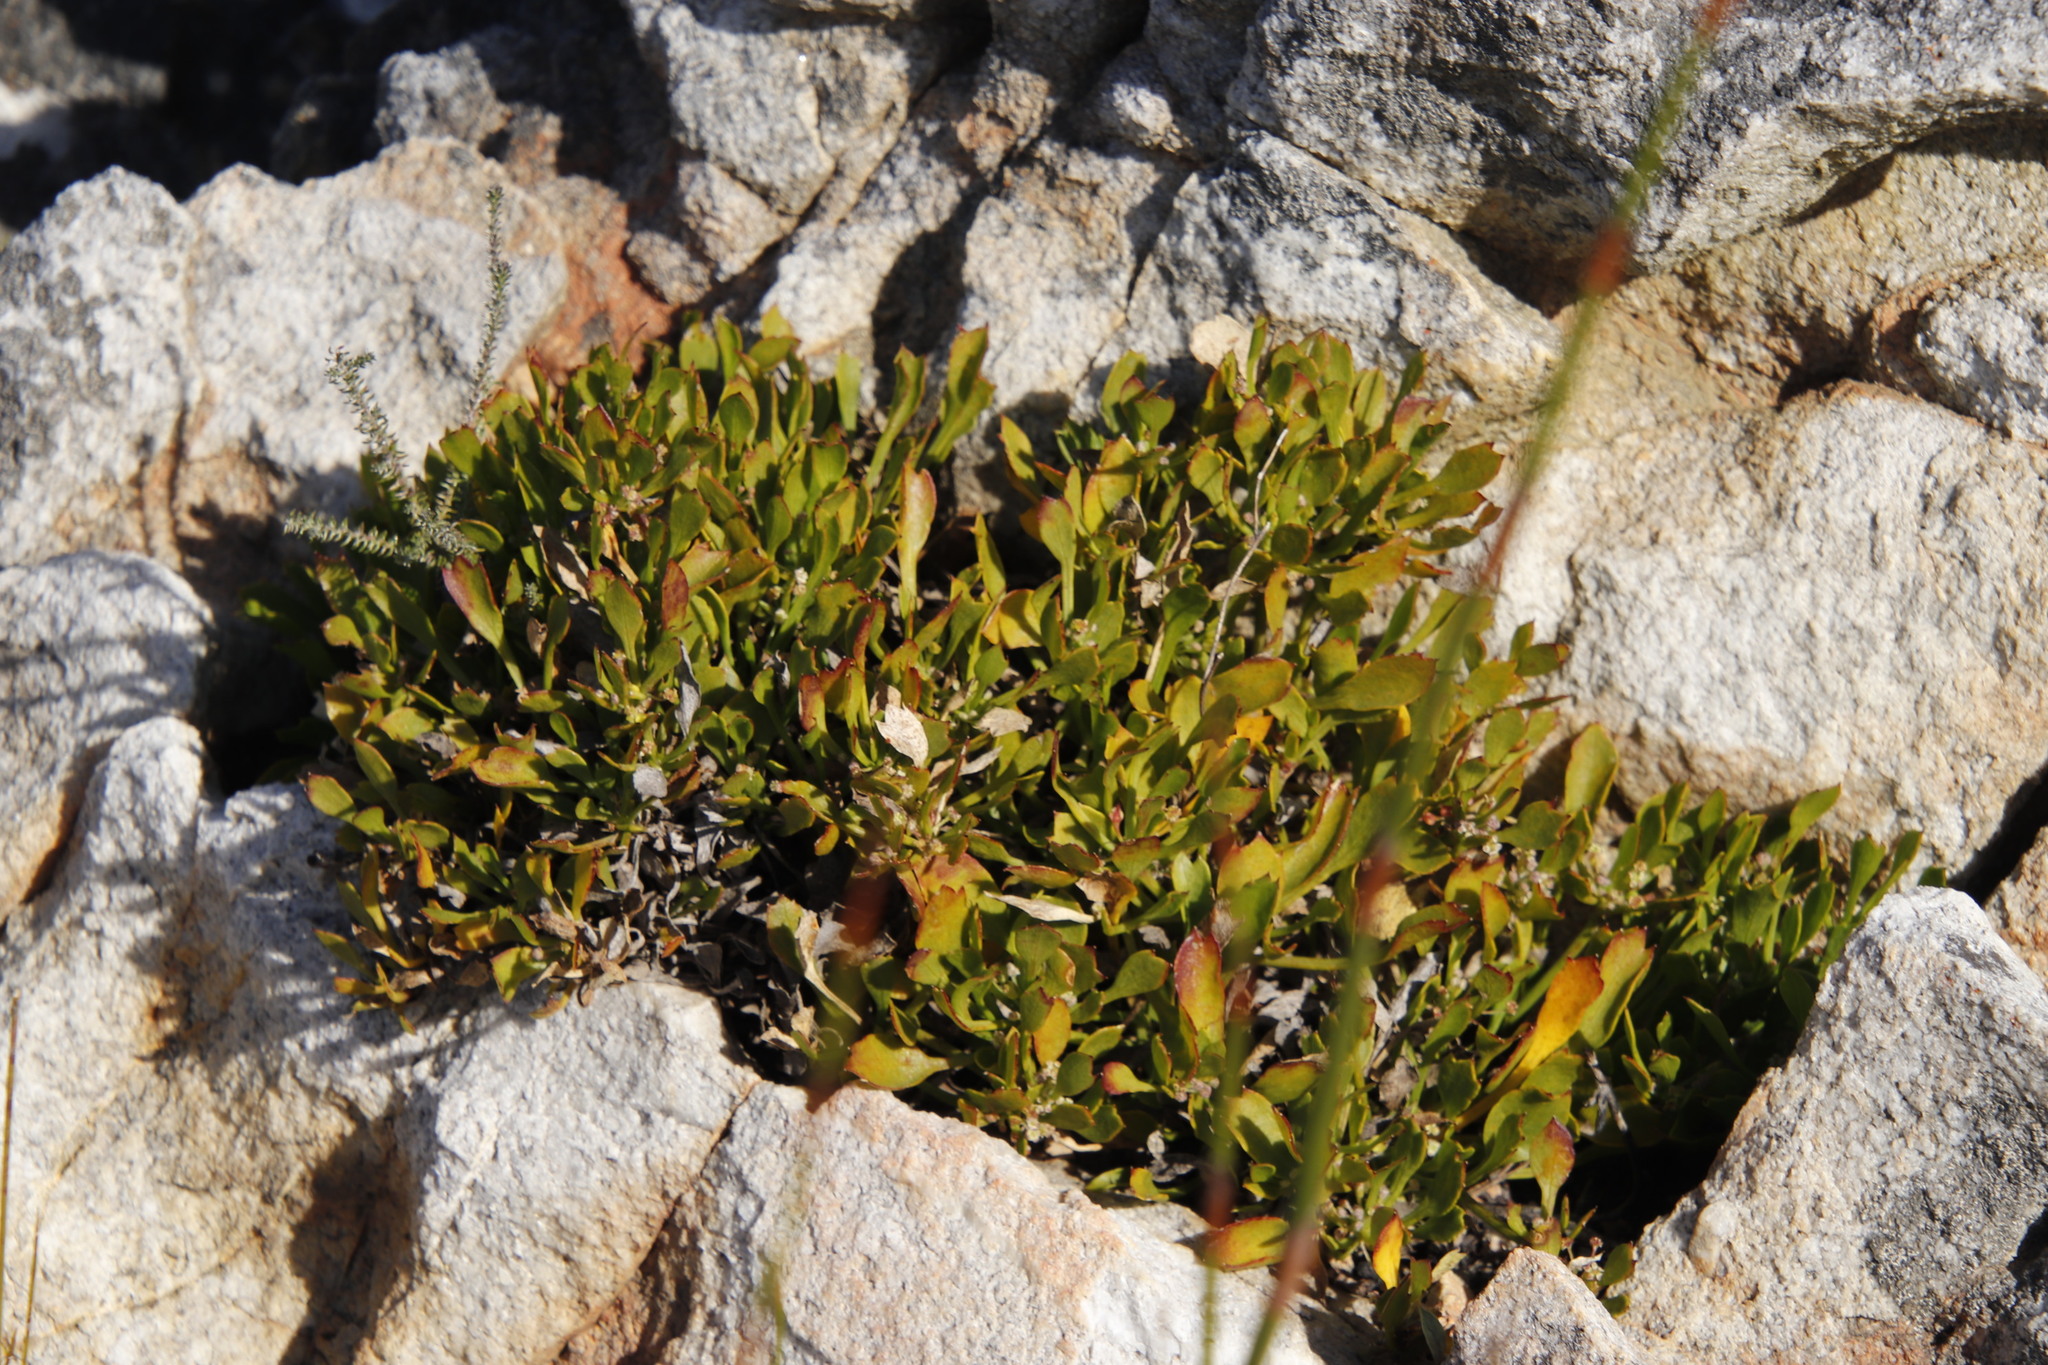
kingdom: Plantae
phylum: Tracheophyta
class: Magnoliopsida
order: Apiales
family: Apiaceae
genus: Centella
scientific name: Centella triloba
